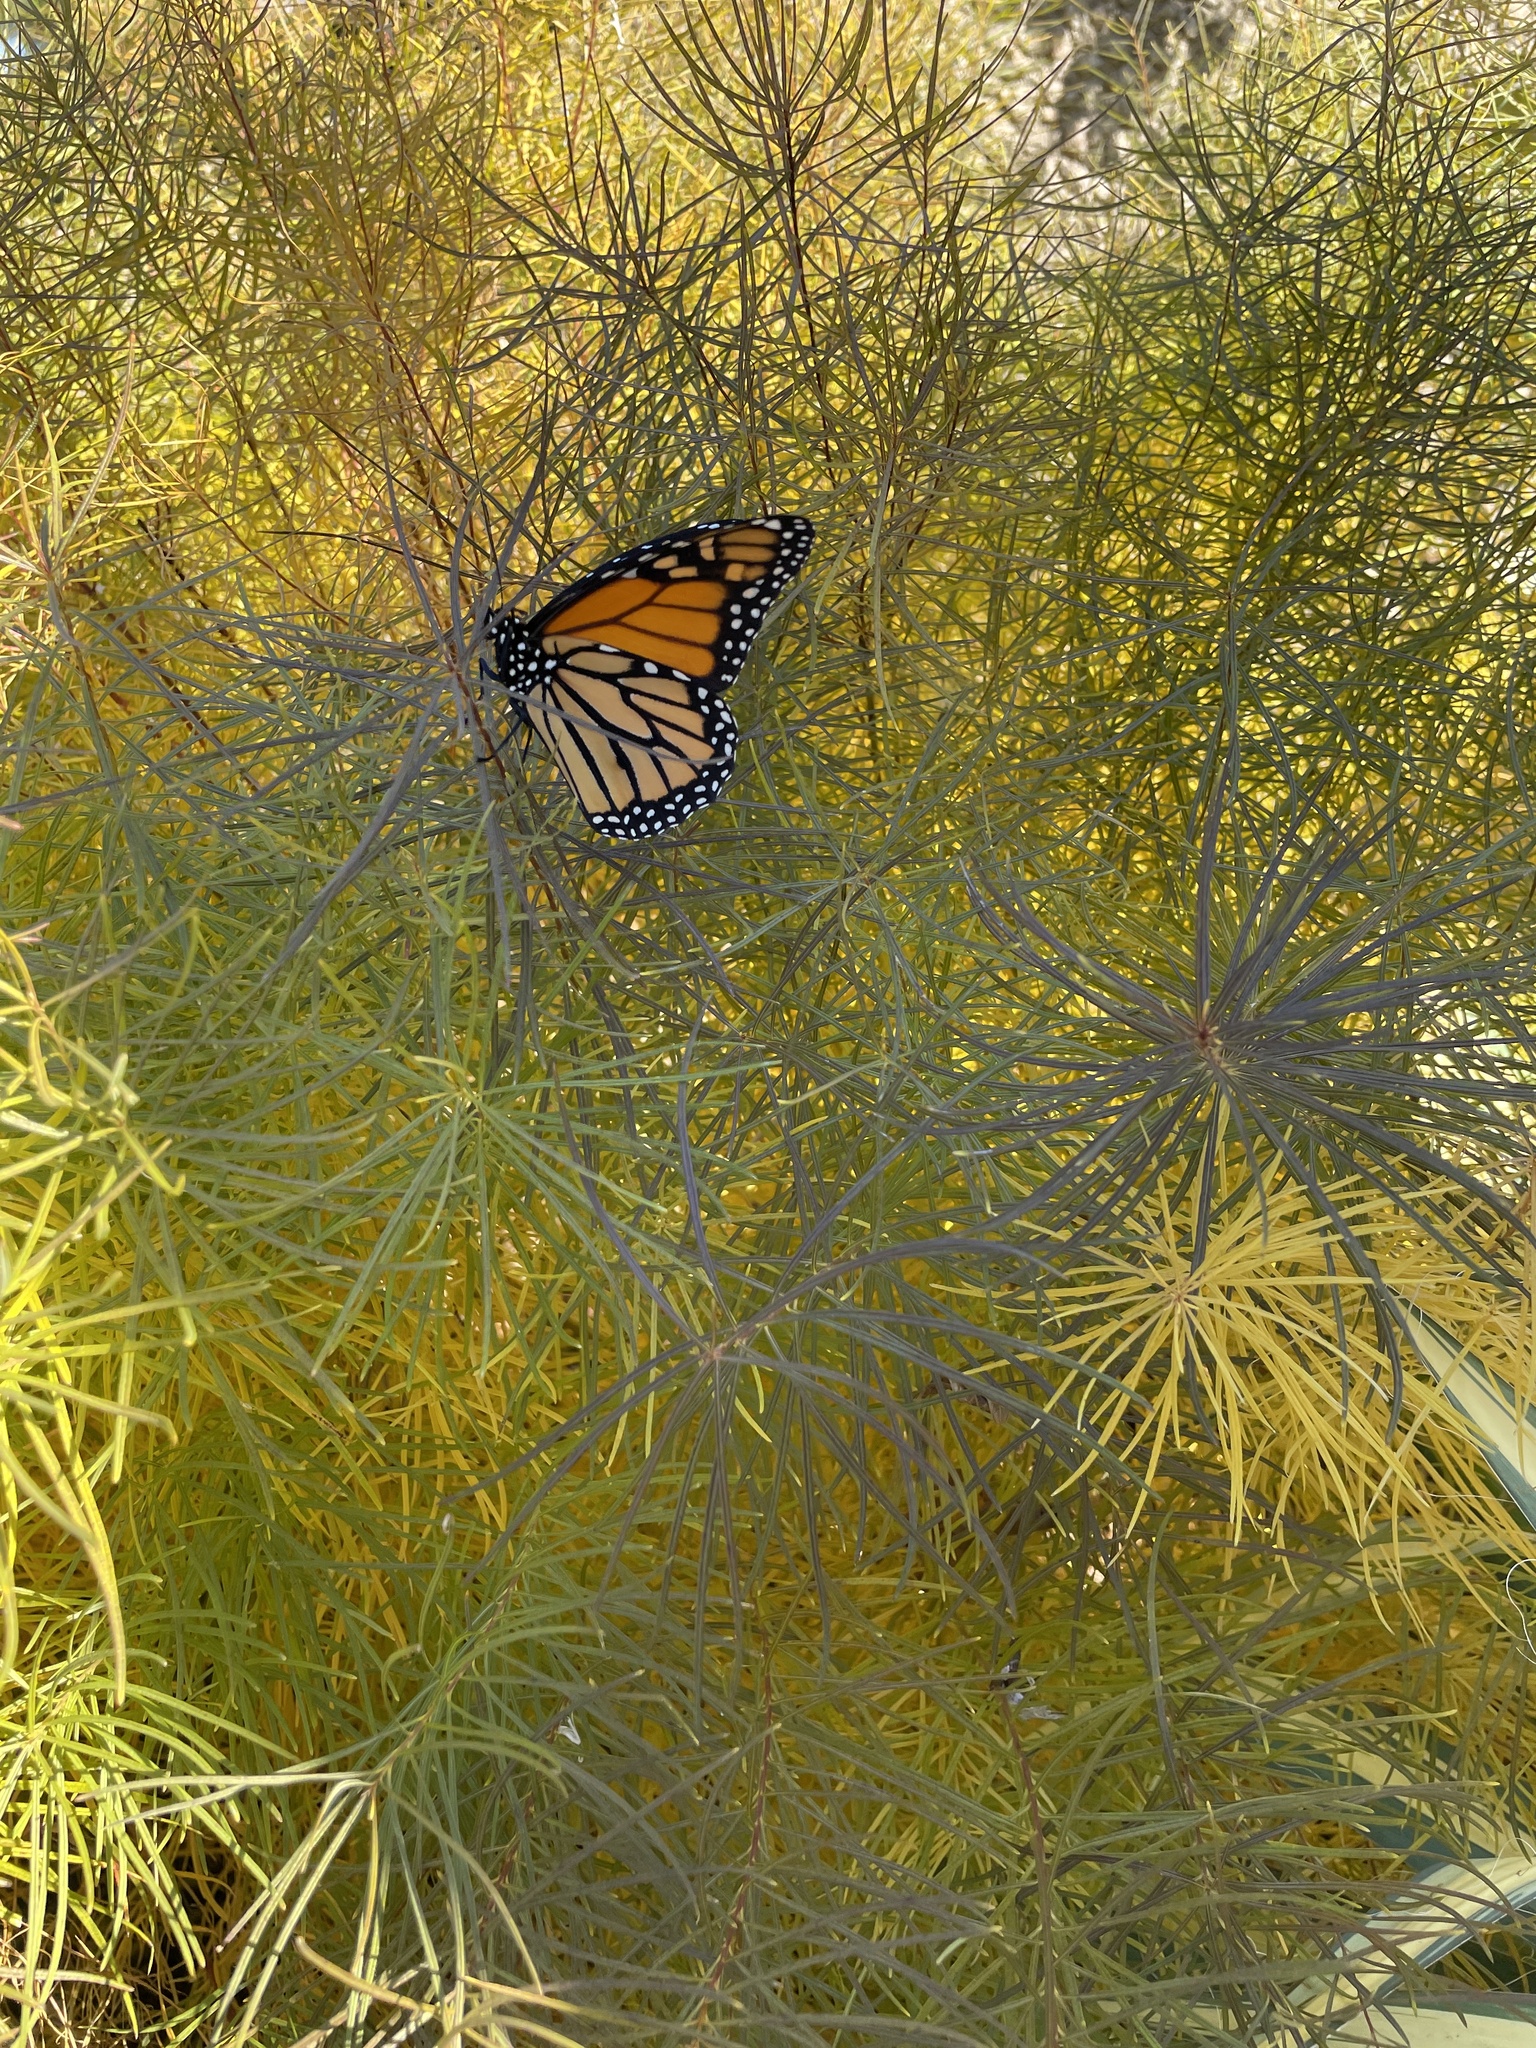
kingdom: Animalia
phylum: Arthropoda
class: Insecta
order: Lepidoptera
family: Nymphalidae
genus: Danaus
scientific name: Danaus plexippus
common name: Monarch
